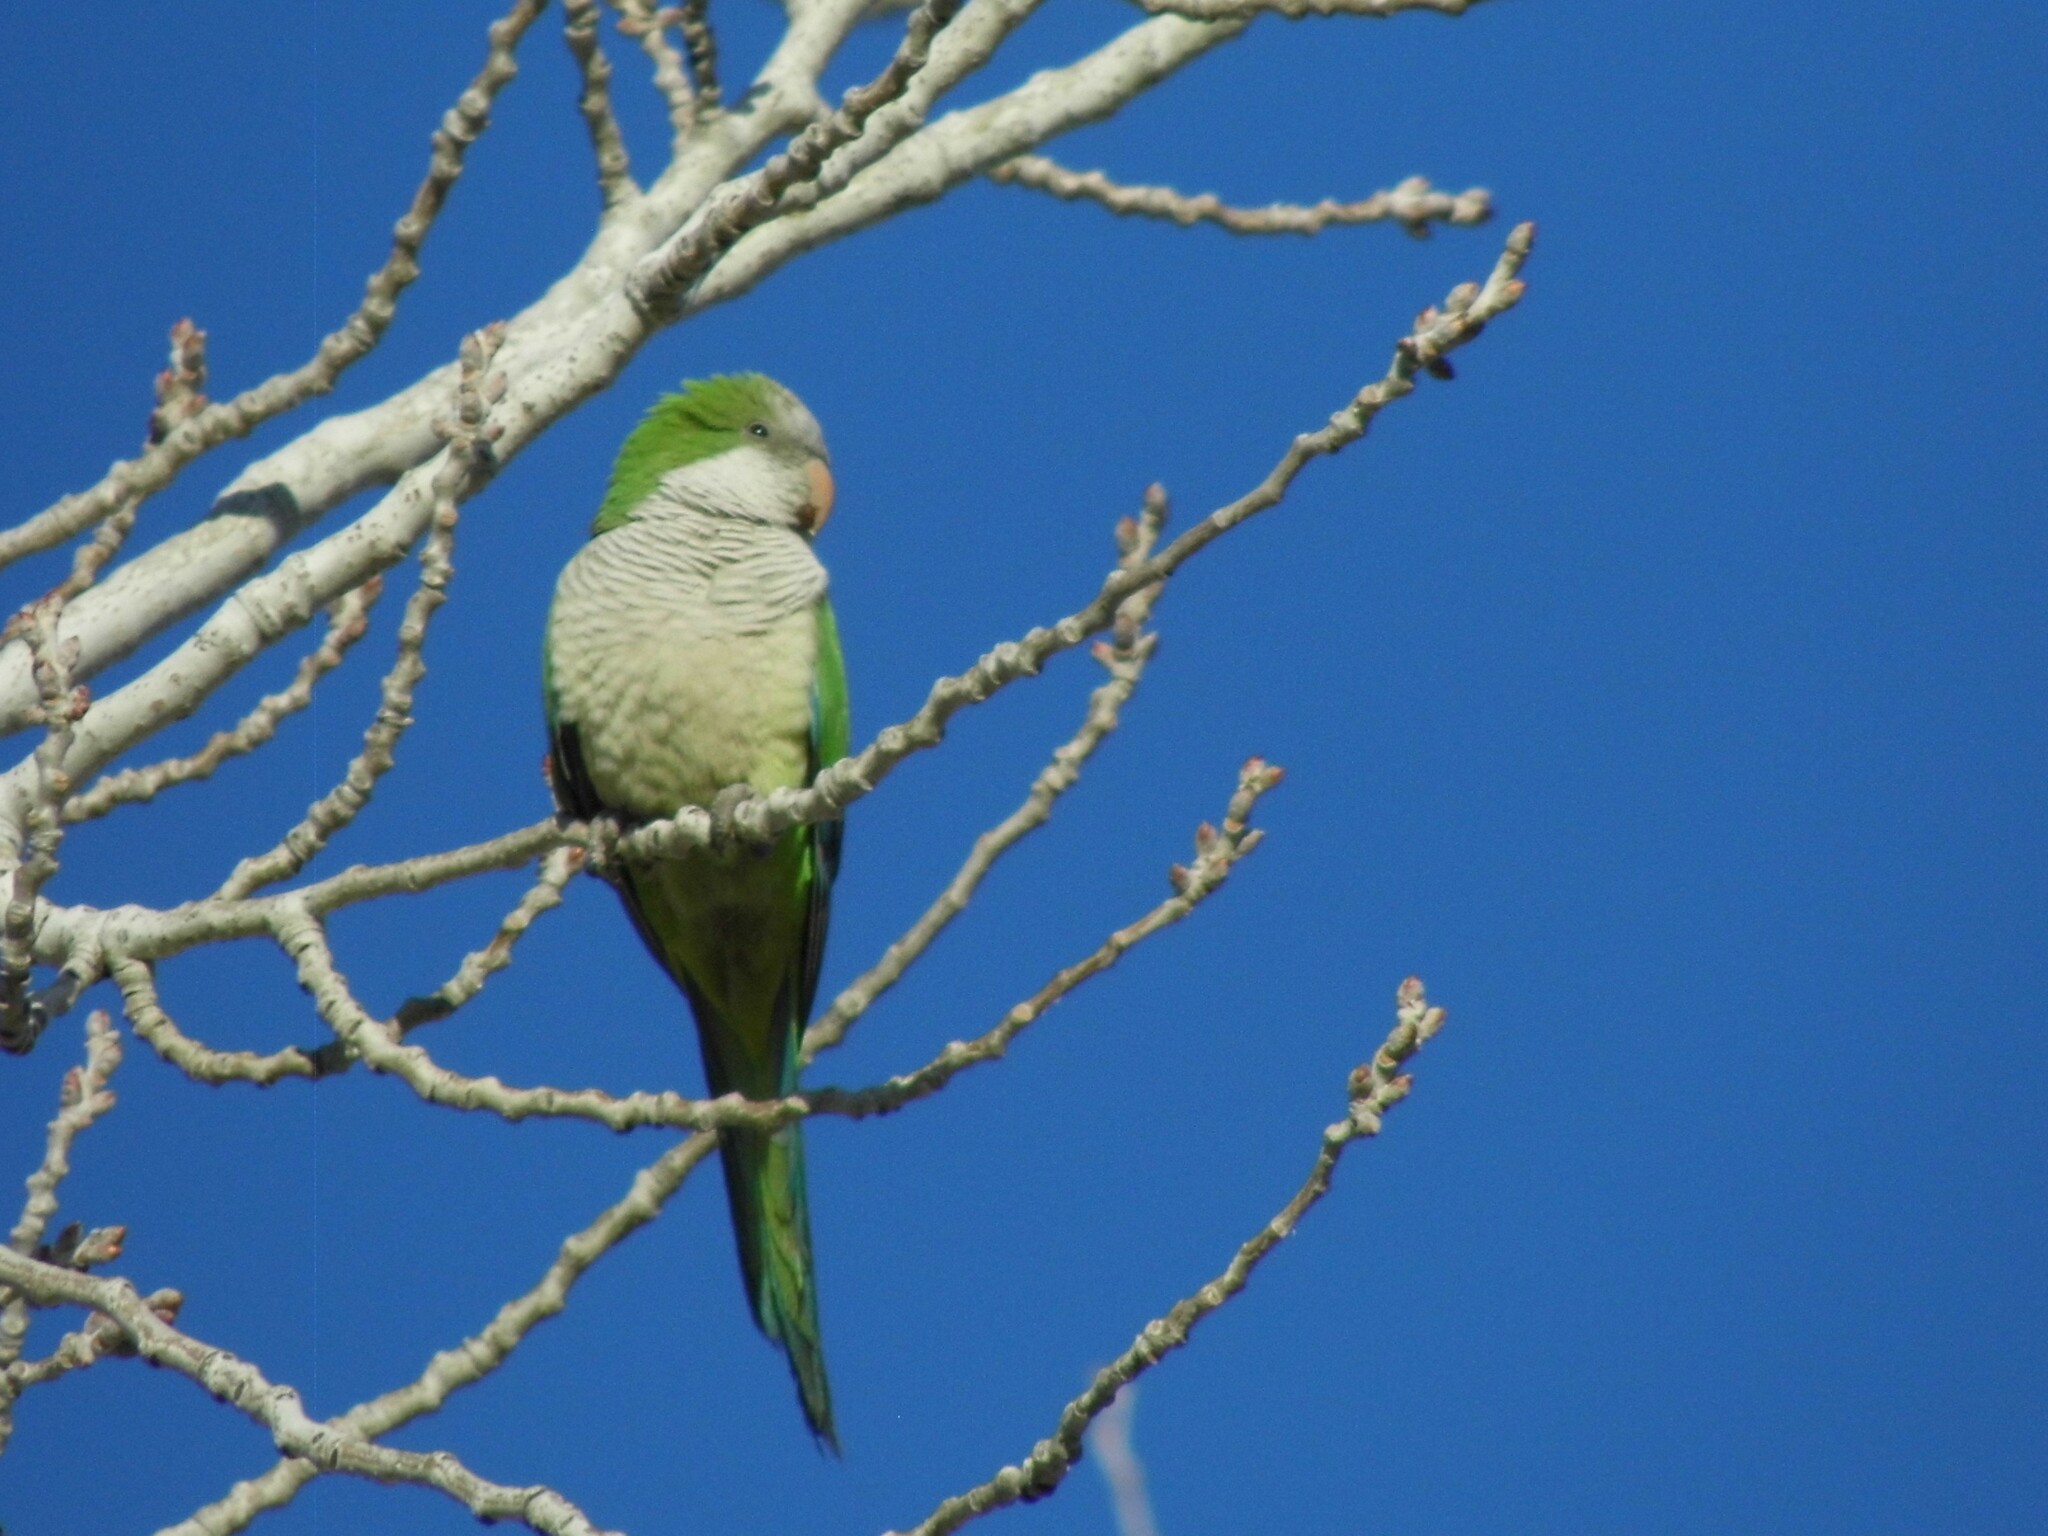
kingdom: Animalia
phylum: Chordata
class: Aves
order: Psittaciformes
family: Psittacidae
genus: Myiopsitta
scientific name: Myiopsitta monachus
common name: Monk parakeet
